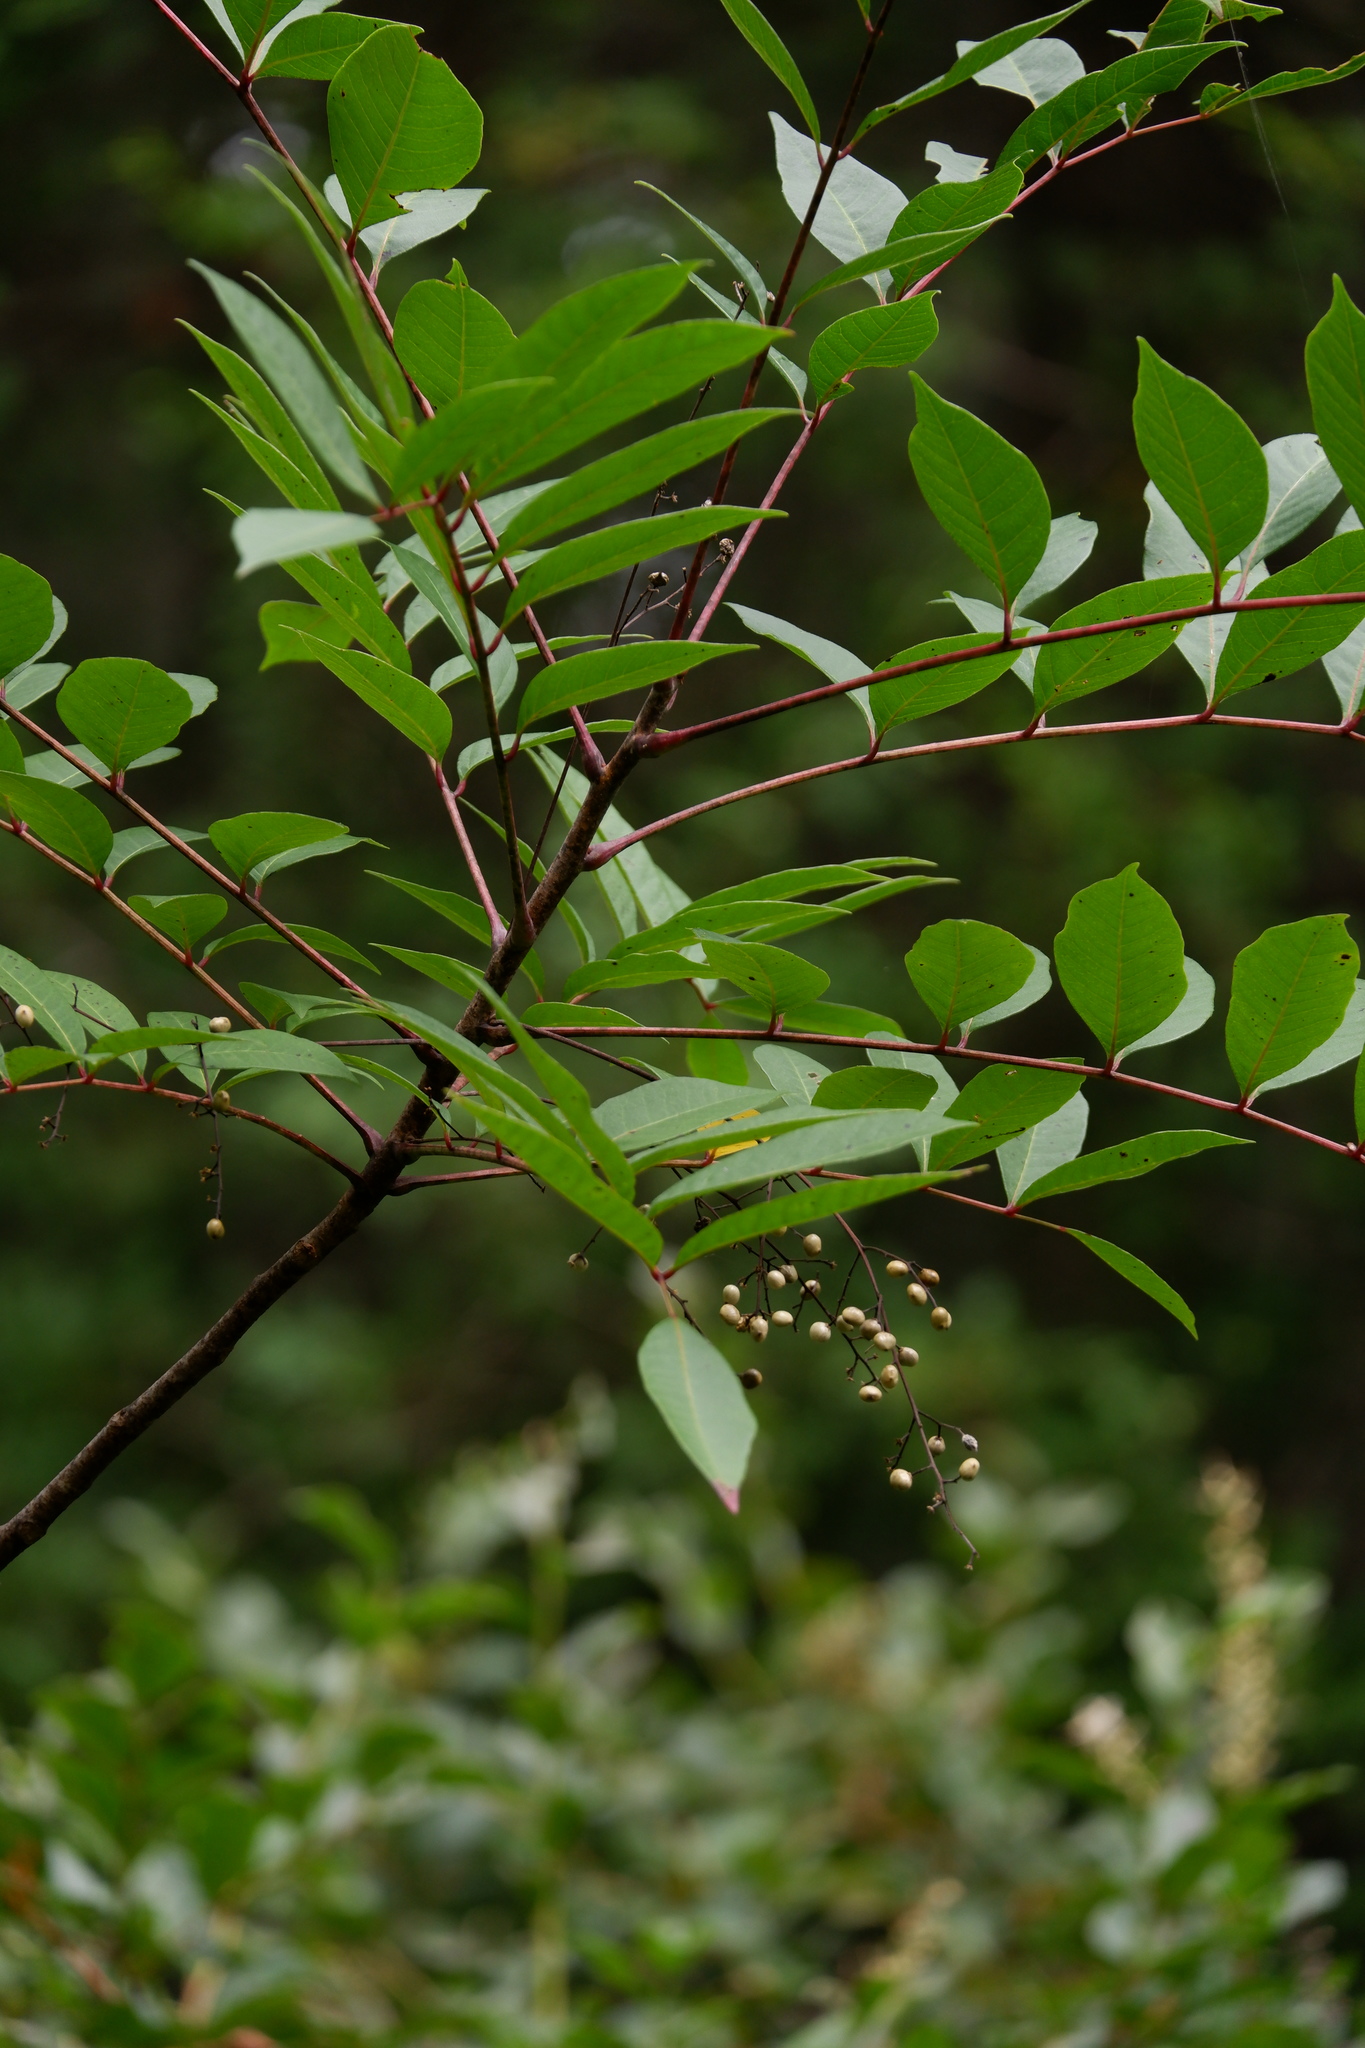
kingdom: Plantae
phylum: Tracheophyta
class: Magnoliopsida
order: Sapindales
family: Anacardiaceae
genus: Toxicodendron
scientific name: Toxicodendron vernix
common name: Poison sumac
